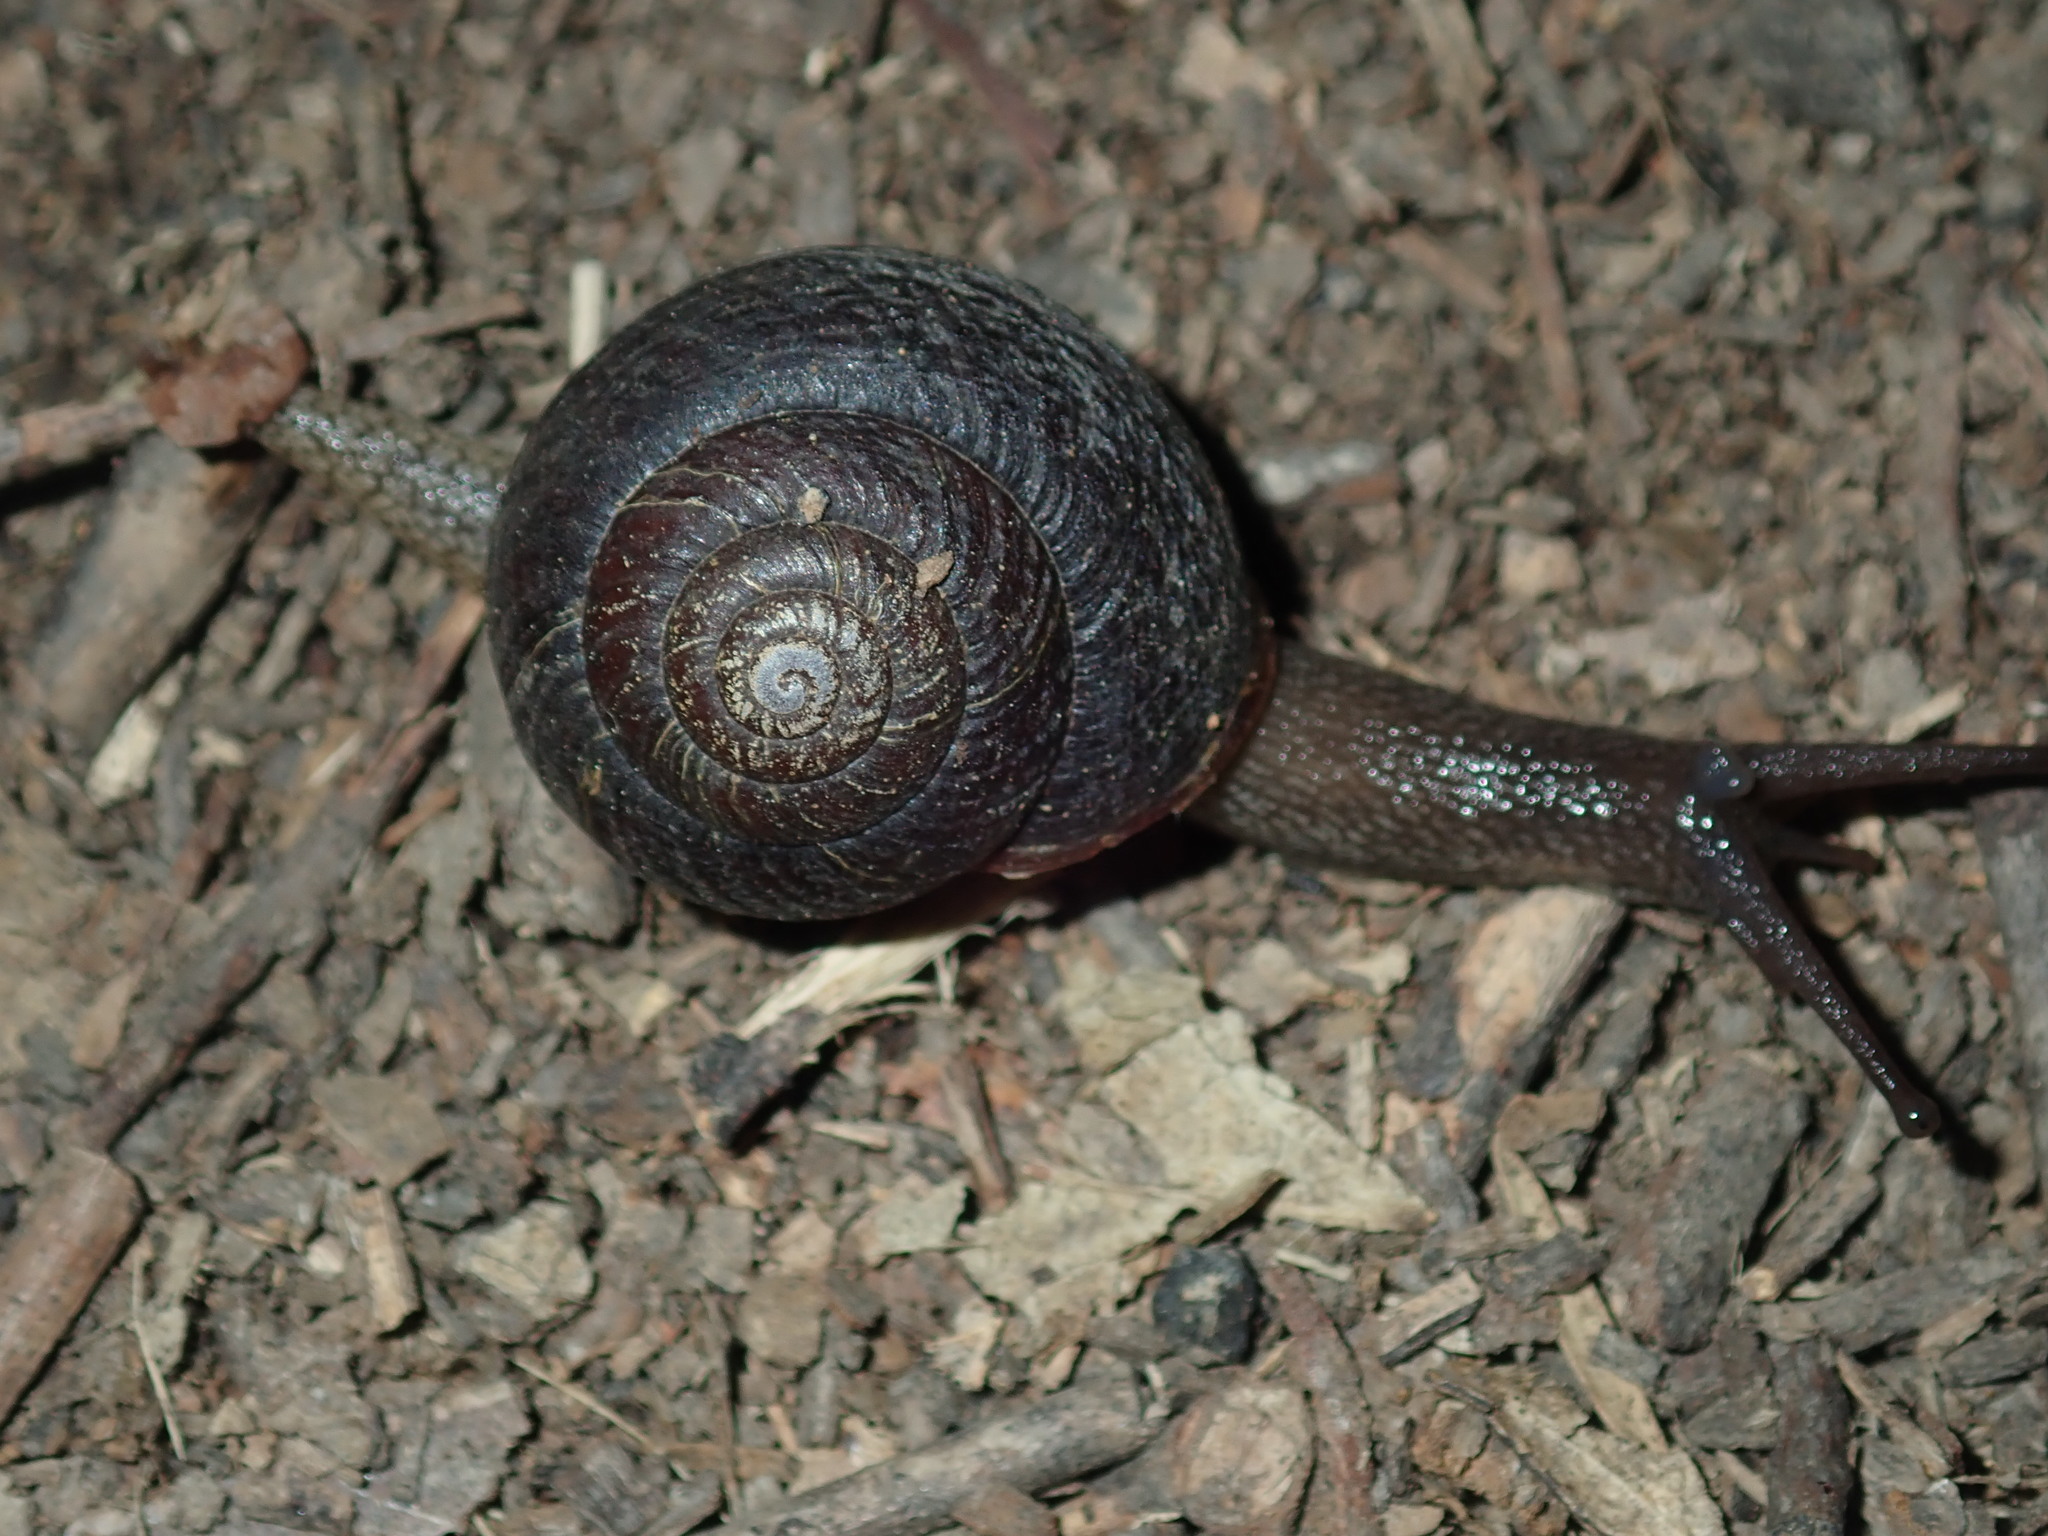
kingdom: Animalia
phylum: Mollusca
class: Gastropoda
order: Stylommatophora
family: Camaenidae
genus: Sauroconcha
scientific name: Sauroconcha sheai
